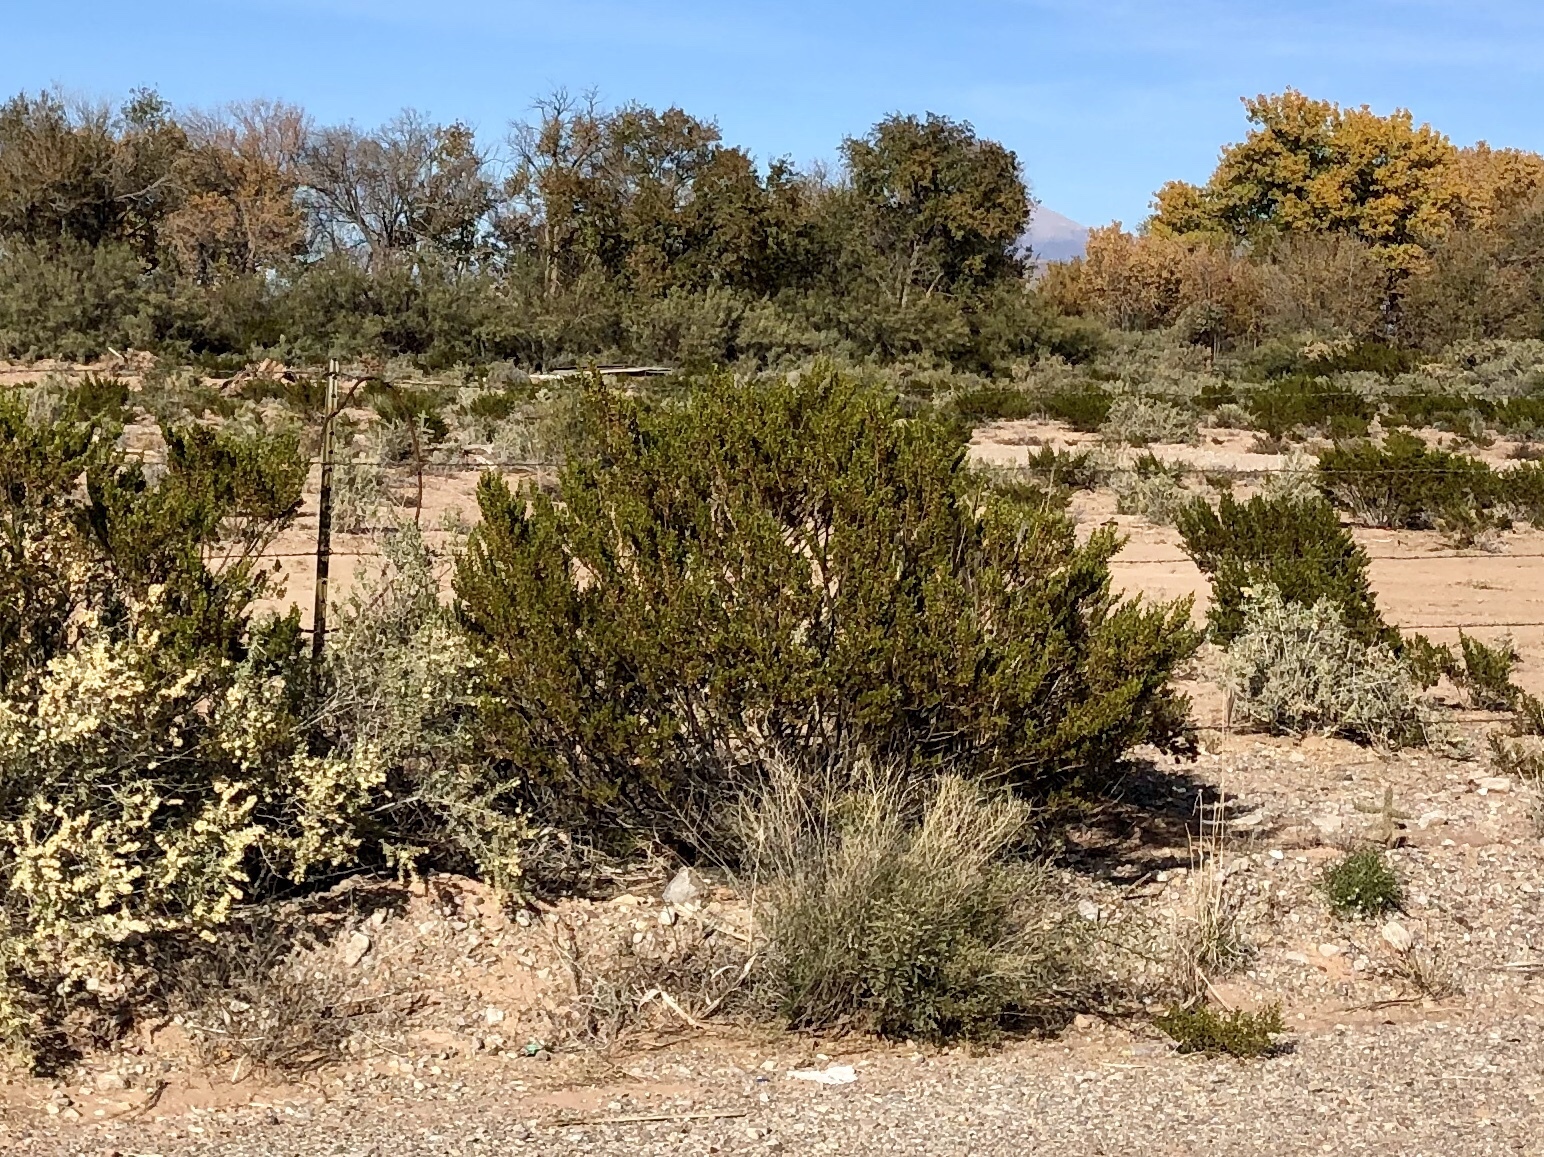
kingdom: Plantae
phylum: Tracheophyta
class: Magnoliopsida
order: Zygophyllales
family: Zygophyllaceae
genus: Larrea
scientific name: Larrea tridentata
